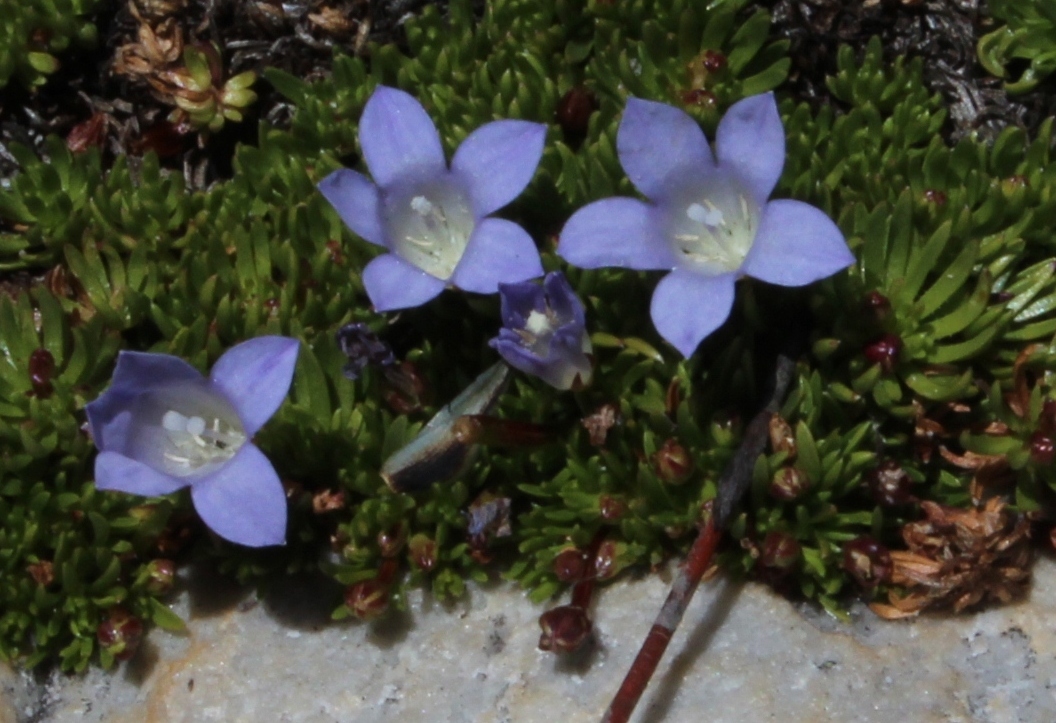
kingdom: Plantae
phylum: Tracheophyta
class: Magnoliopsida
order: Asterales
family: Campanulaceae
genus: Prismatocarpus
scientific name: Prismatocarpus alpinus
